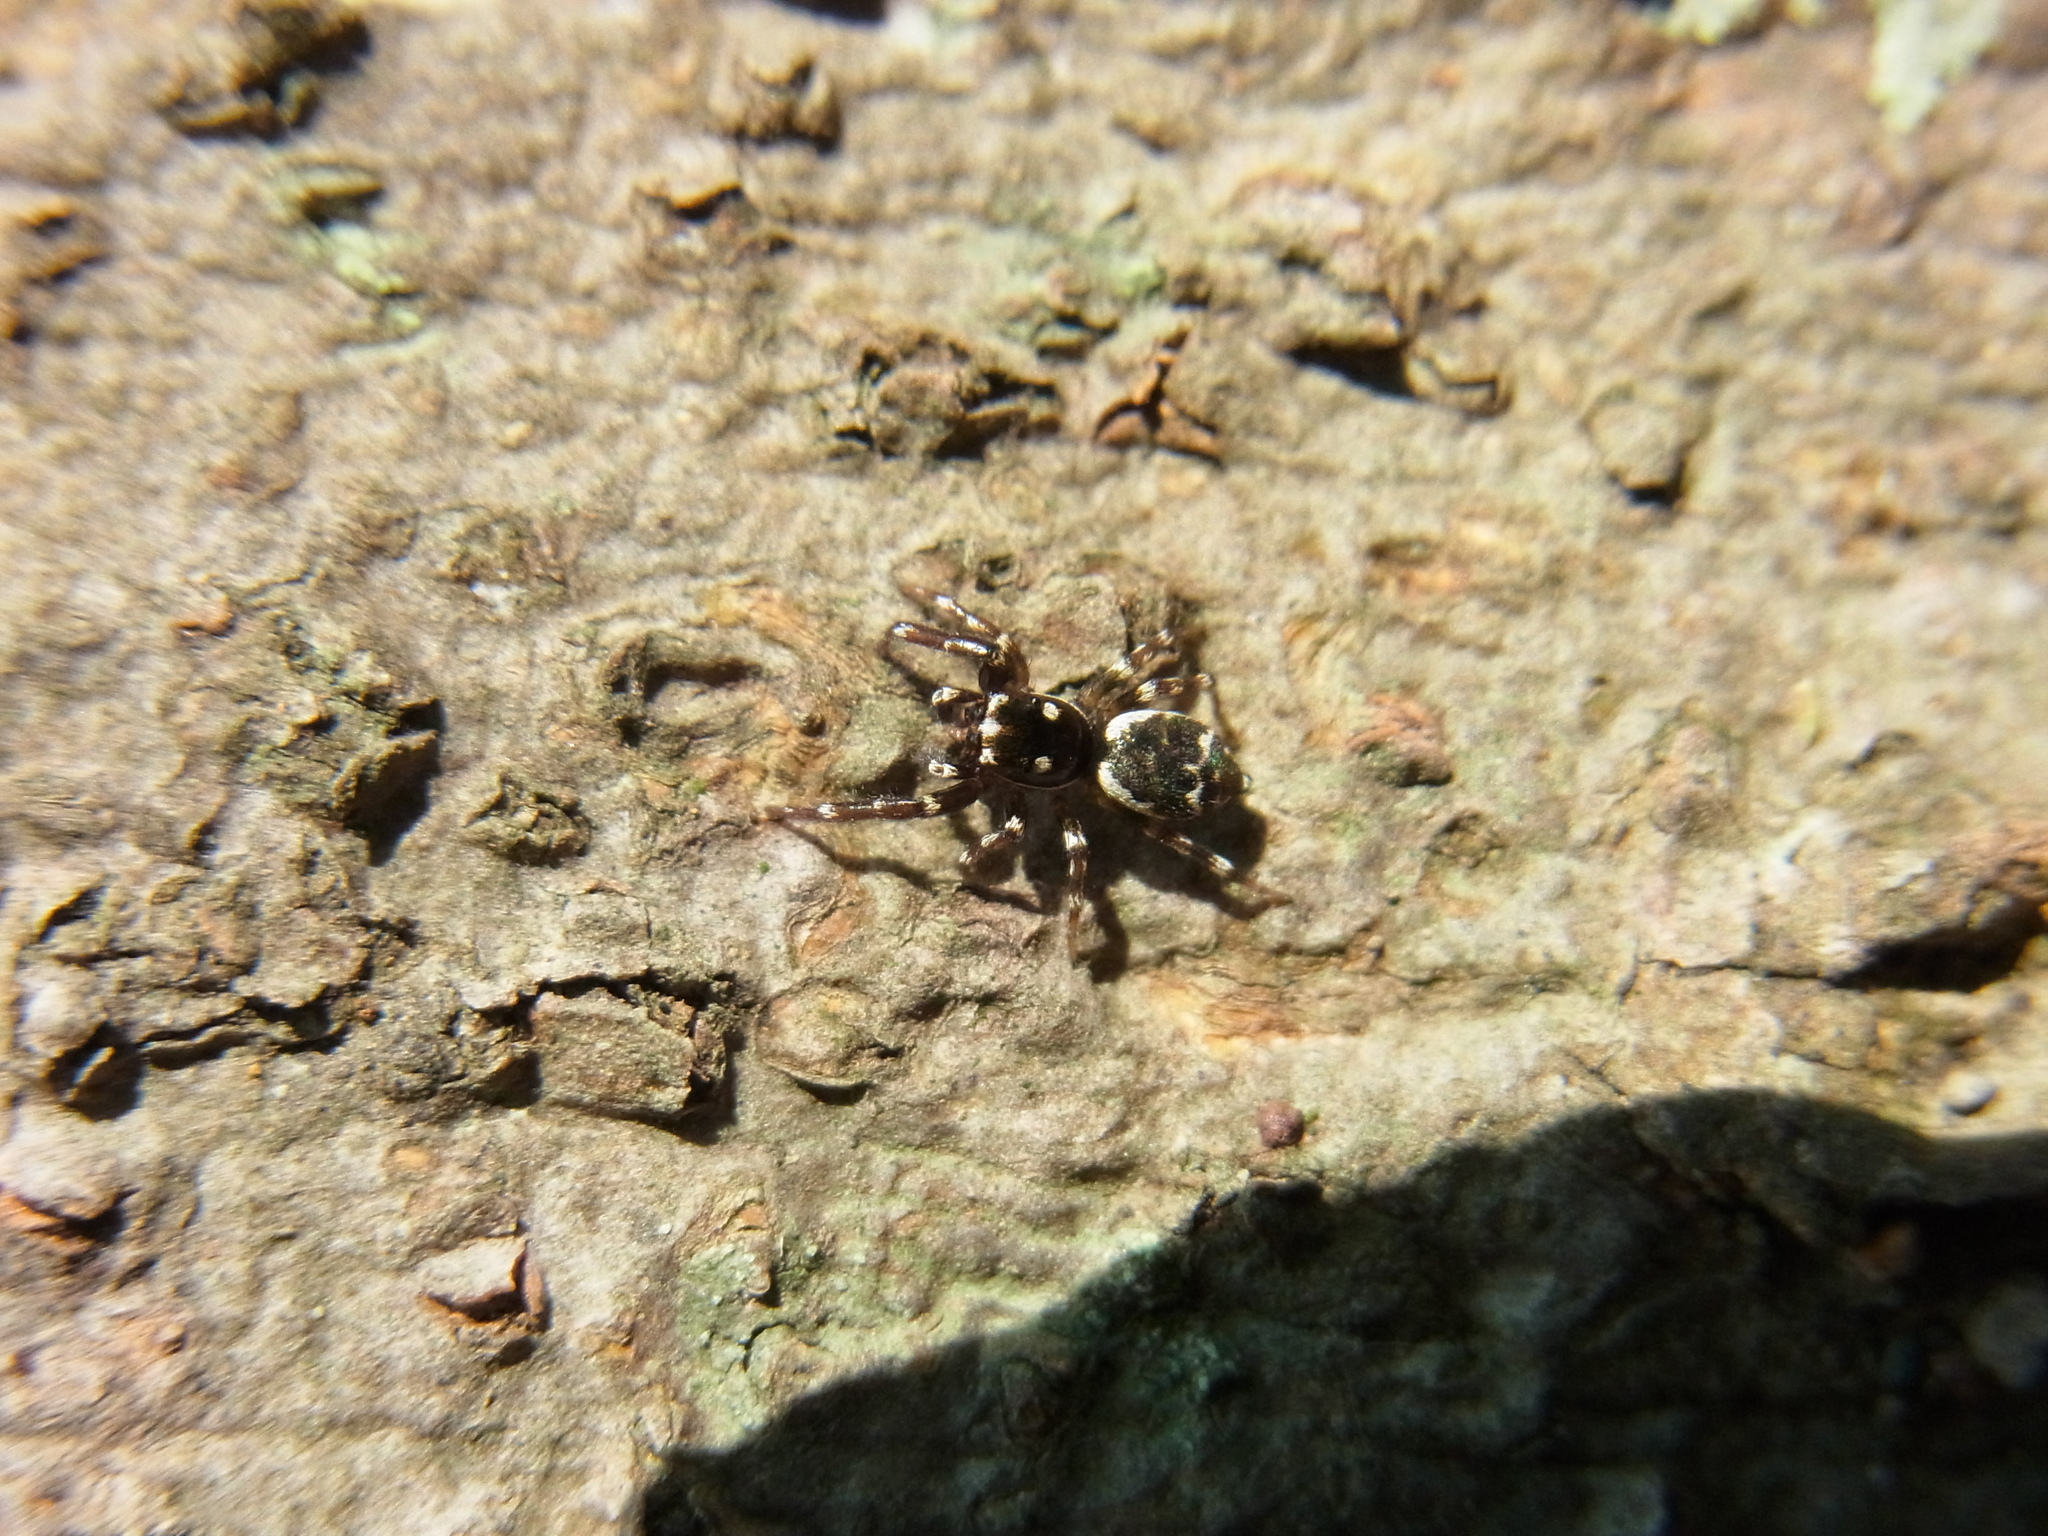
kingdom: Animalia
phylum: Arthropoda
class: Arachnida
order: Araneae
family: Salticidae
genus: Orienticius
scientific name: Orienticius vulpes
